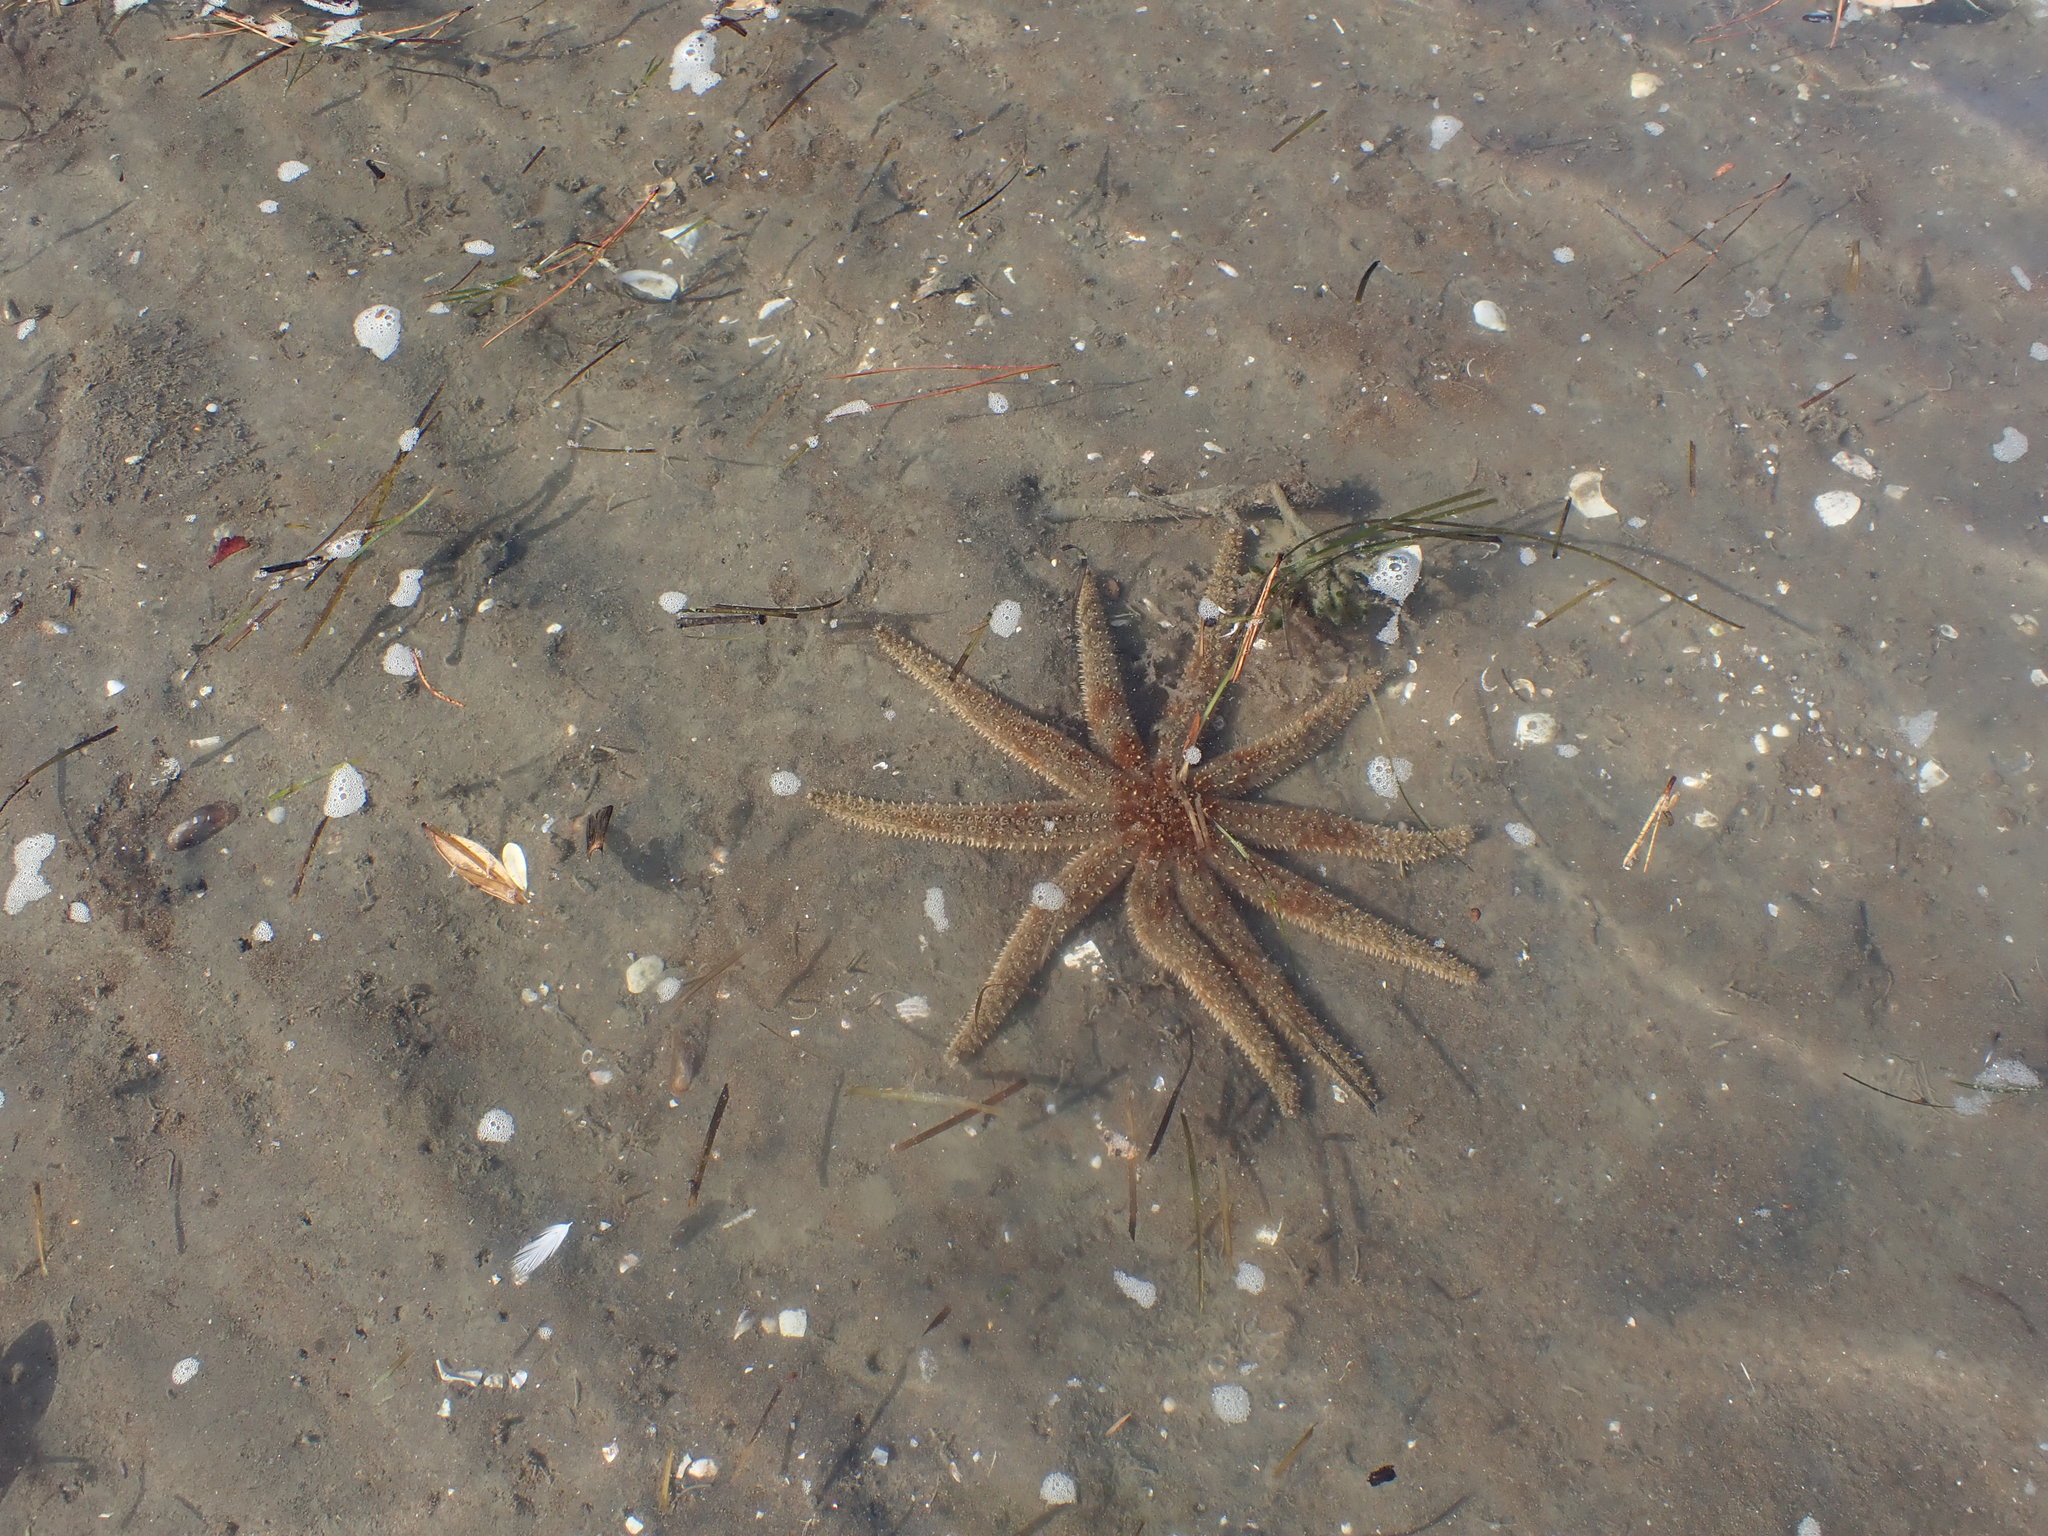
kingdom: Animalia
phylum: Echinodermata
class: Asteroidea
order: Forcipulatida
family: Asteriidae
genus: Coscinasterias
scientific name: Coscinasterias muricata
